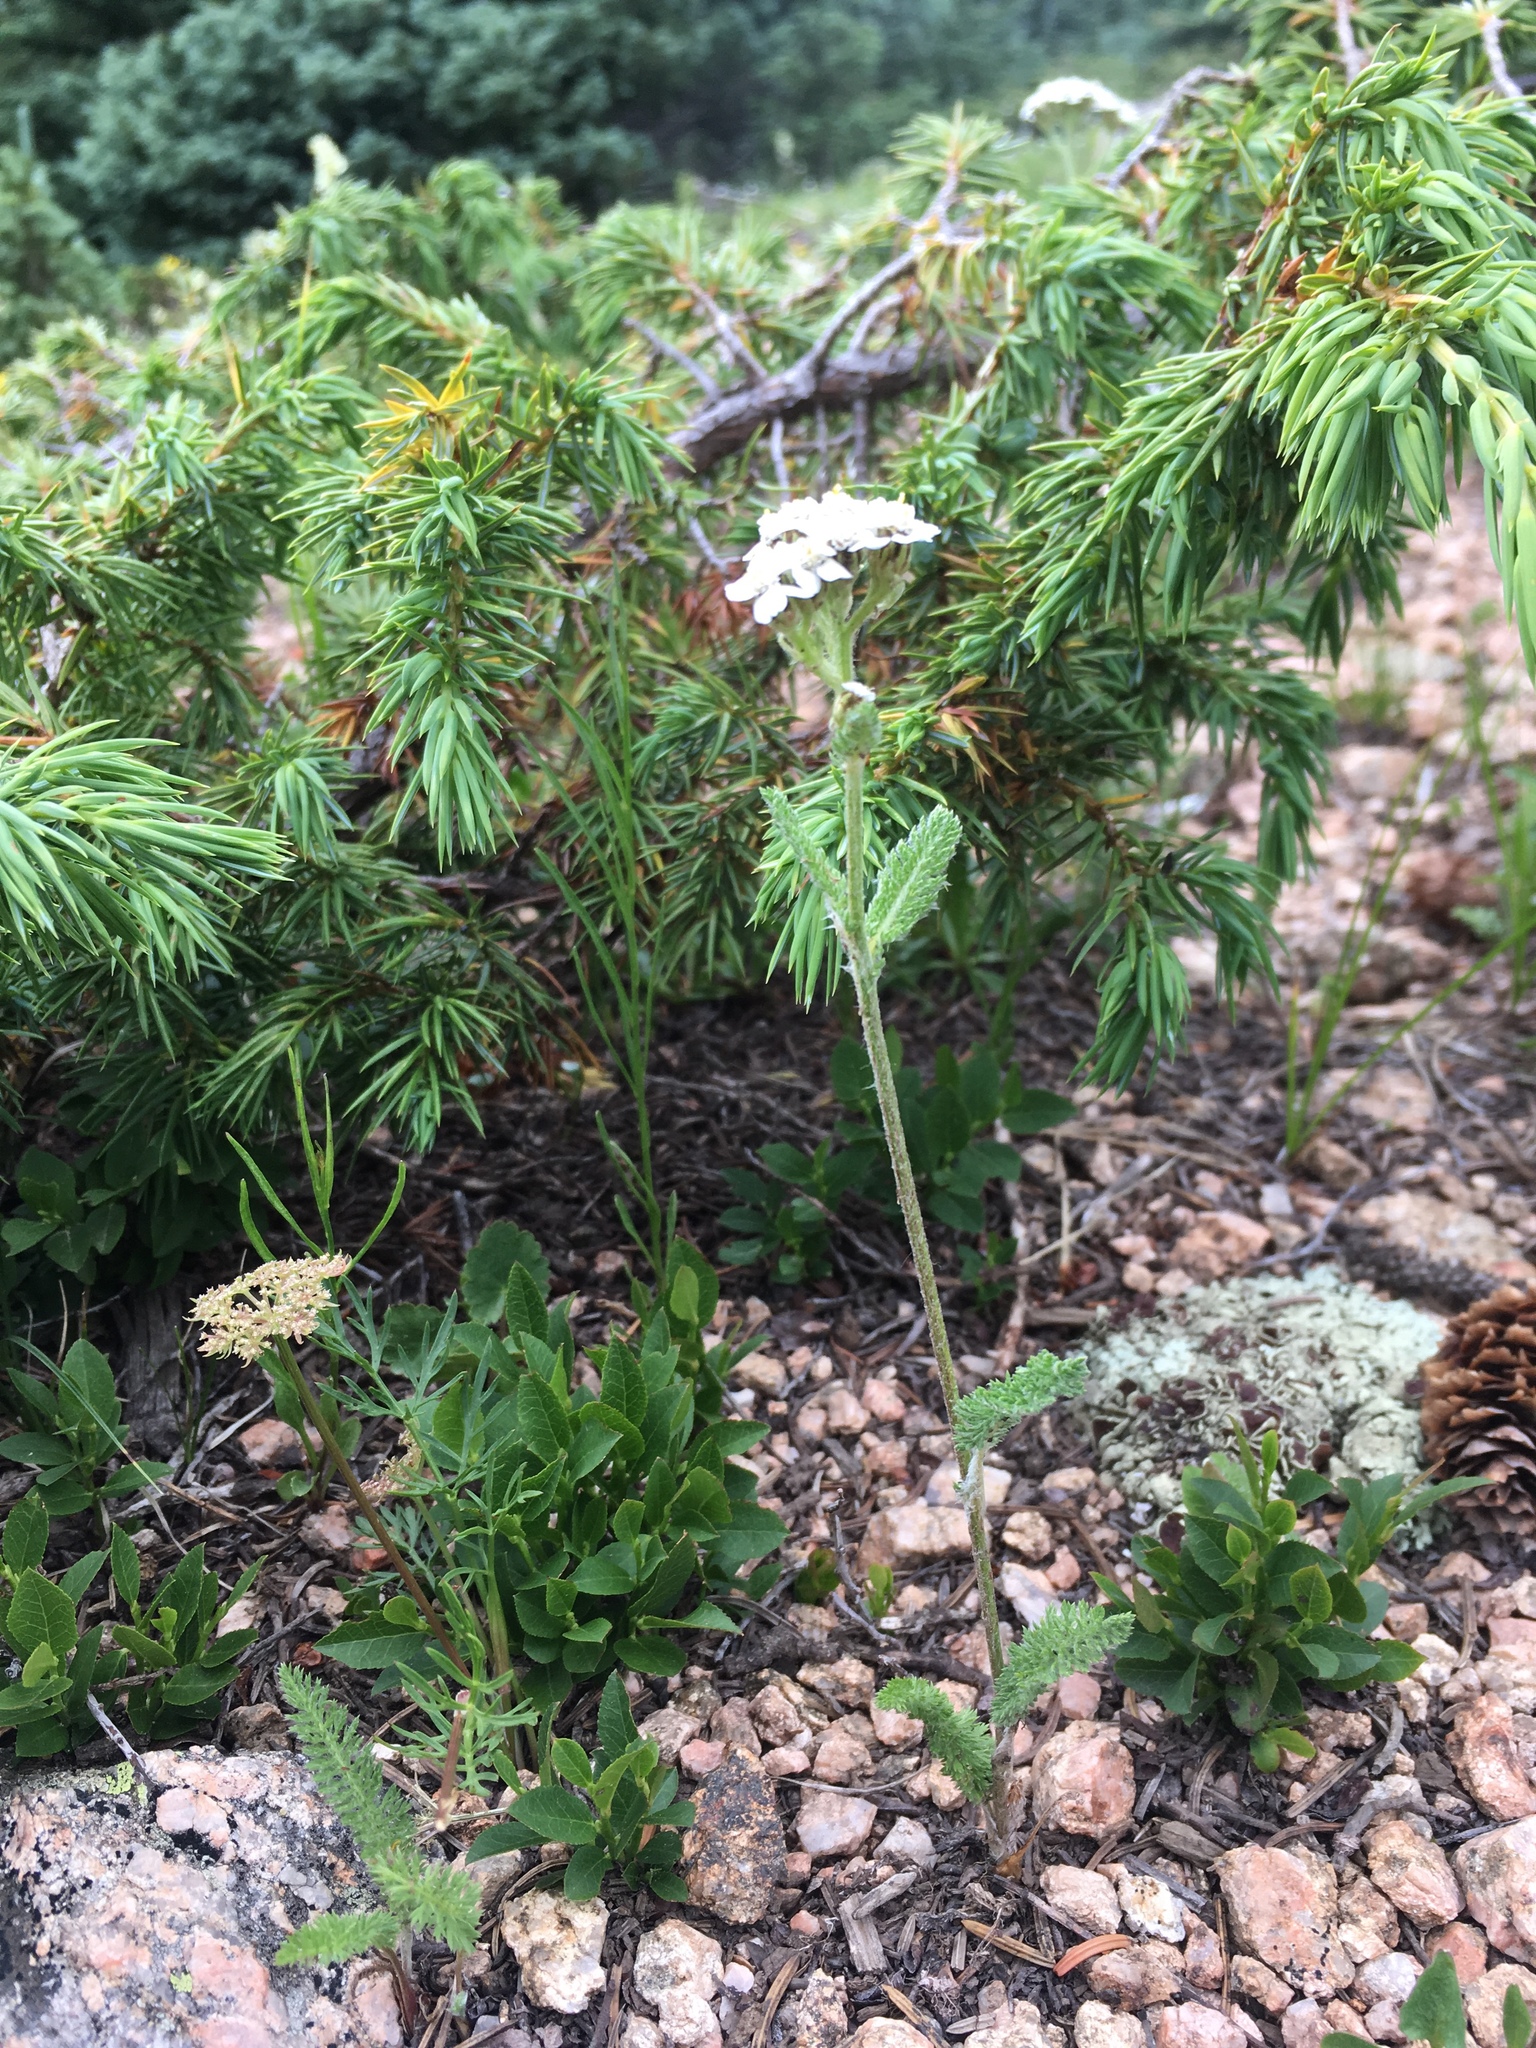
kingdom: Plantae
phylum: Tracheophyta
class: Magnoliopsida
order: Asterales
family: Asteraceae
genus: Achillea
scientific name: Achillea millefolium
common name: Yarrow
